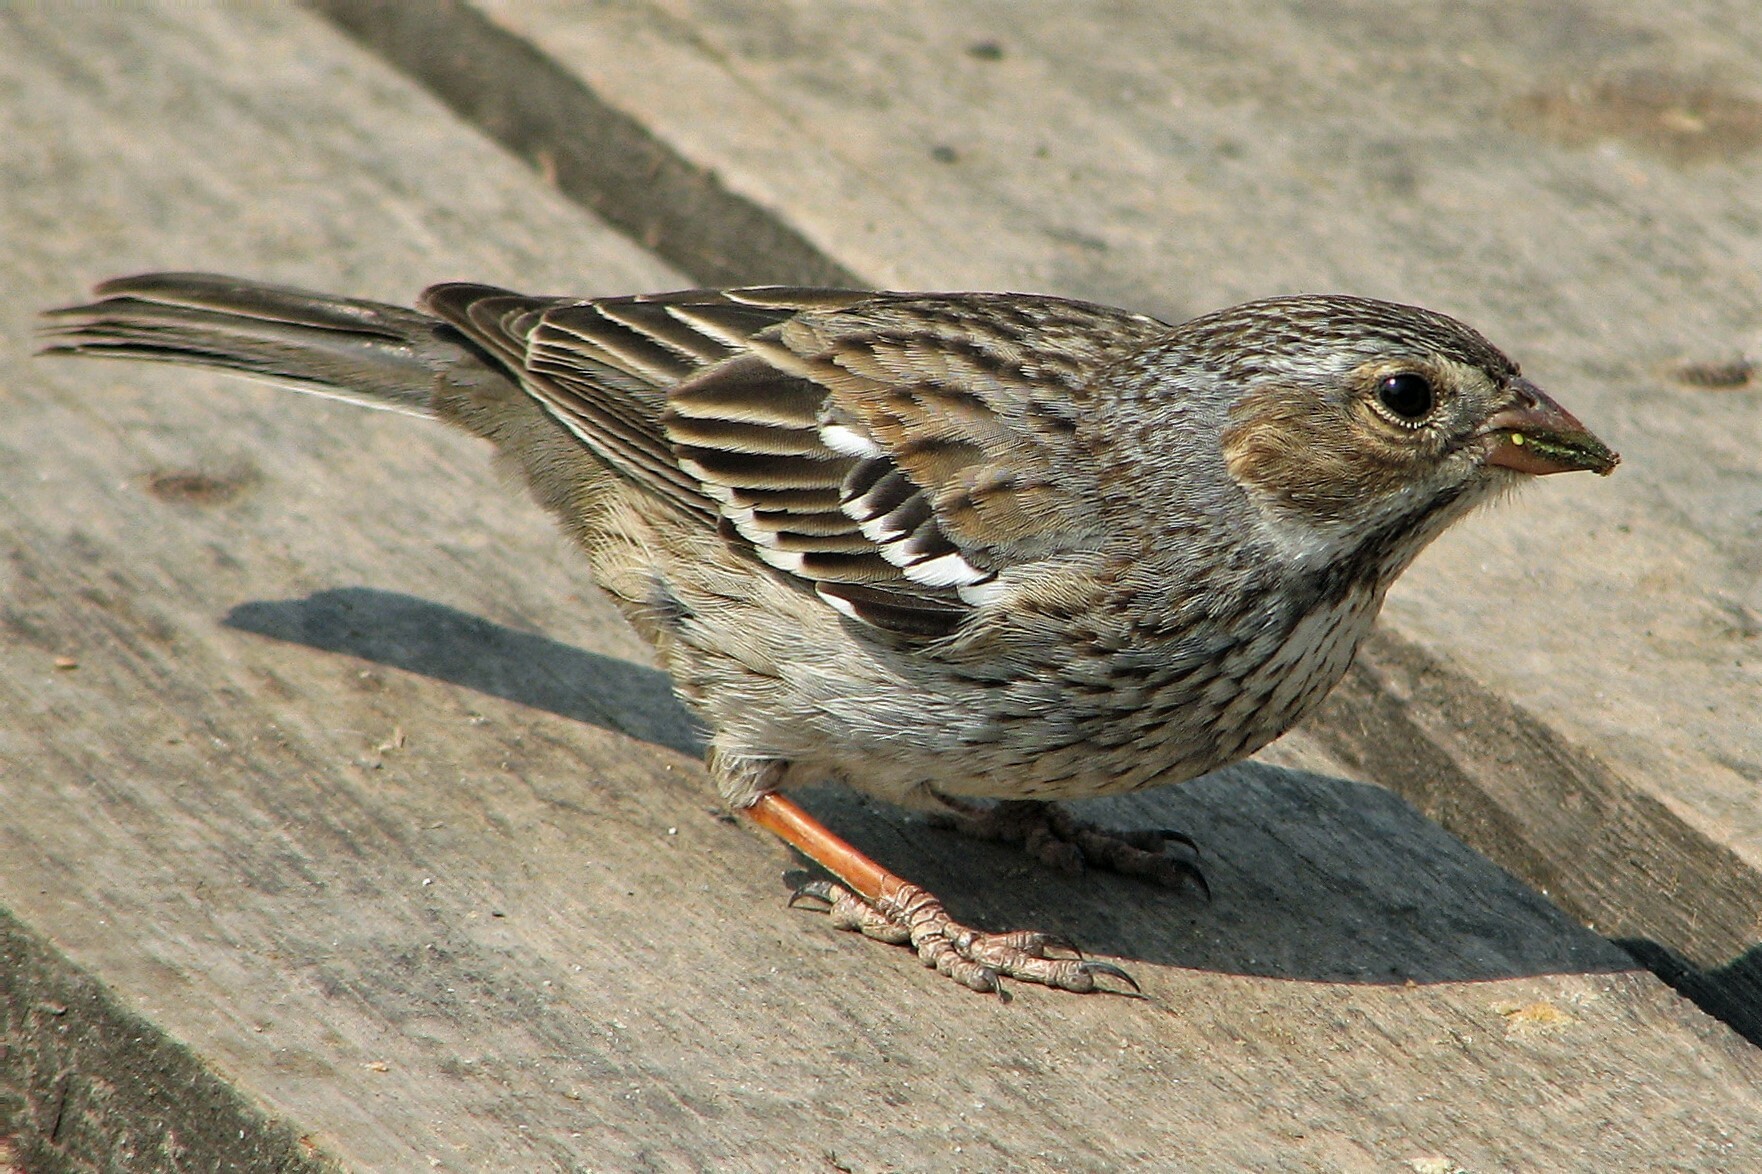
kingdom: Animalia
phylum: Chordata
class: Aves
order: Passeriformes
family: Thraupidae
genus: Rhopospina
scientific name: Rhopospina fruticeti
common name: Mourning sierra finch
